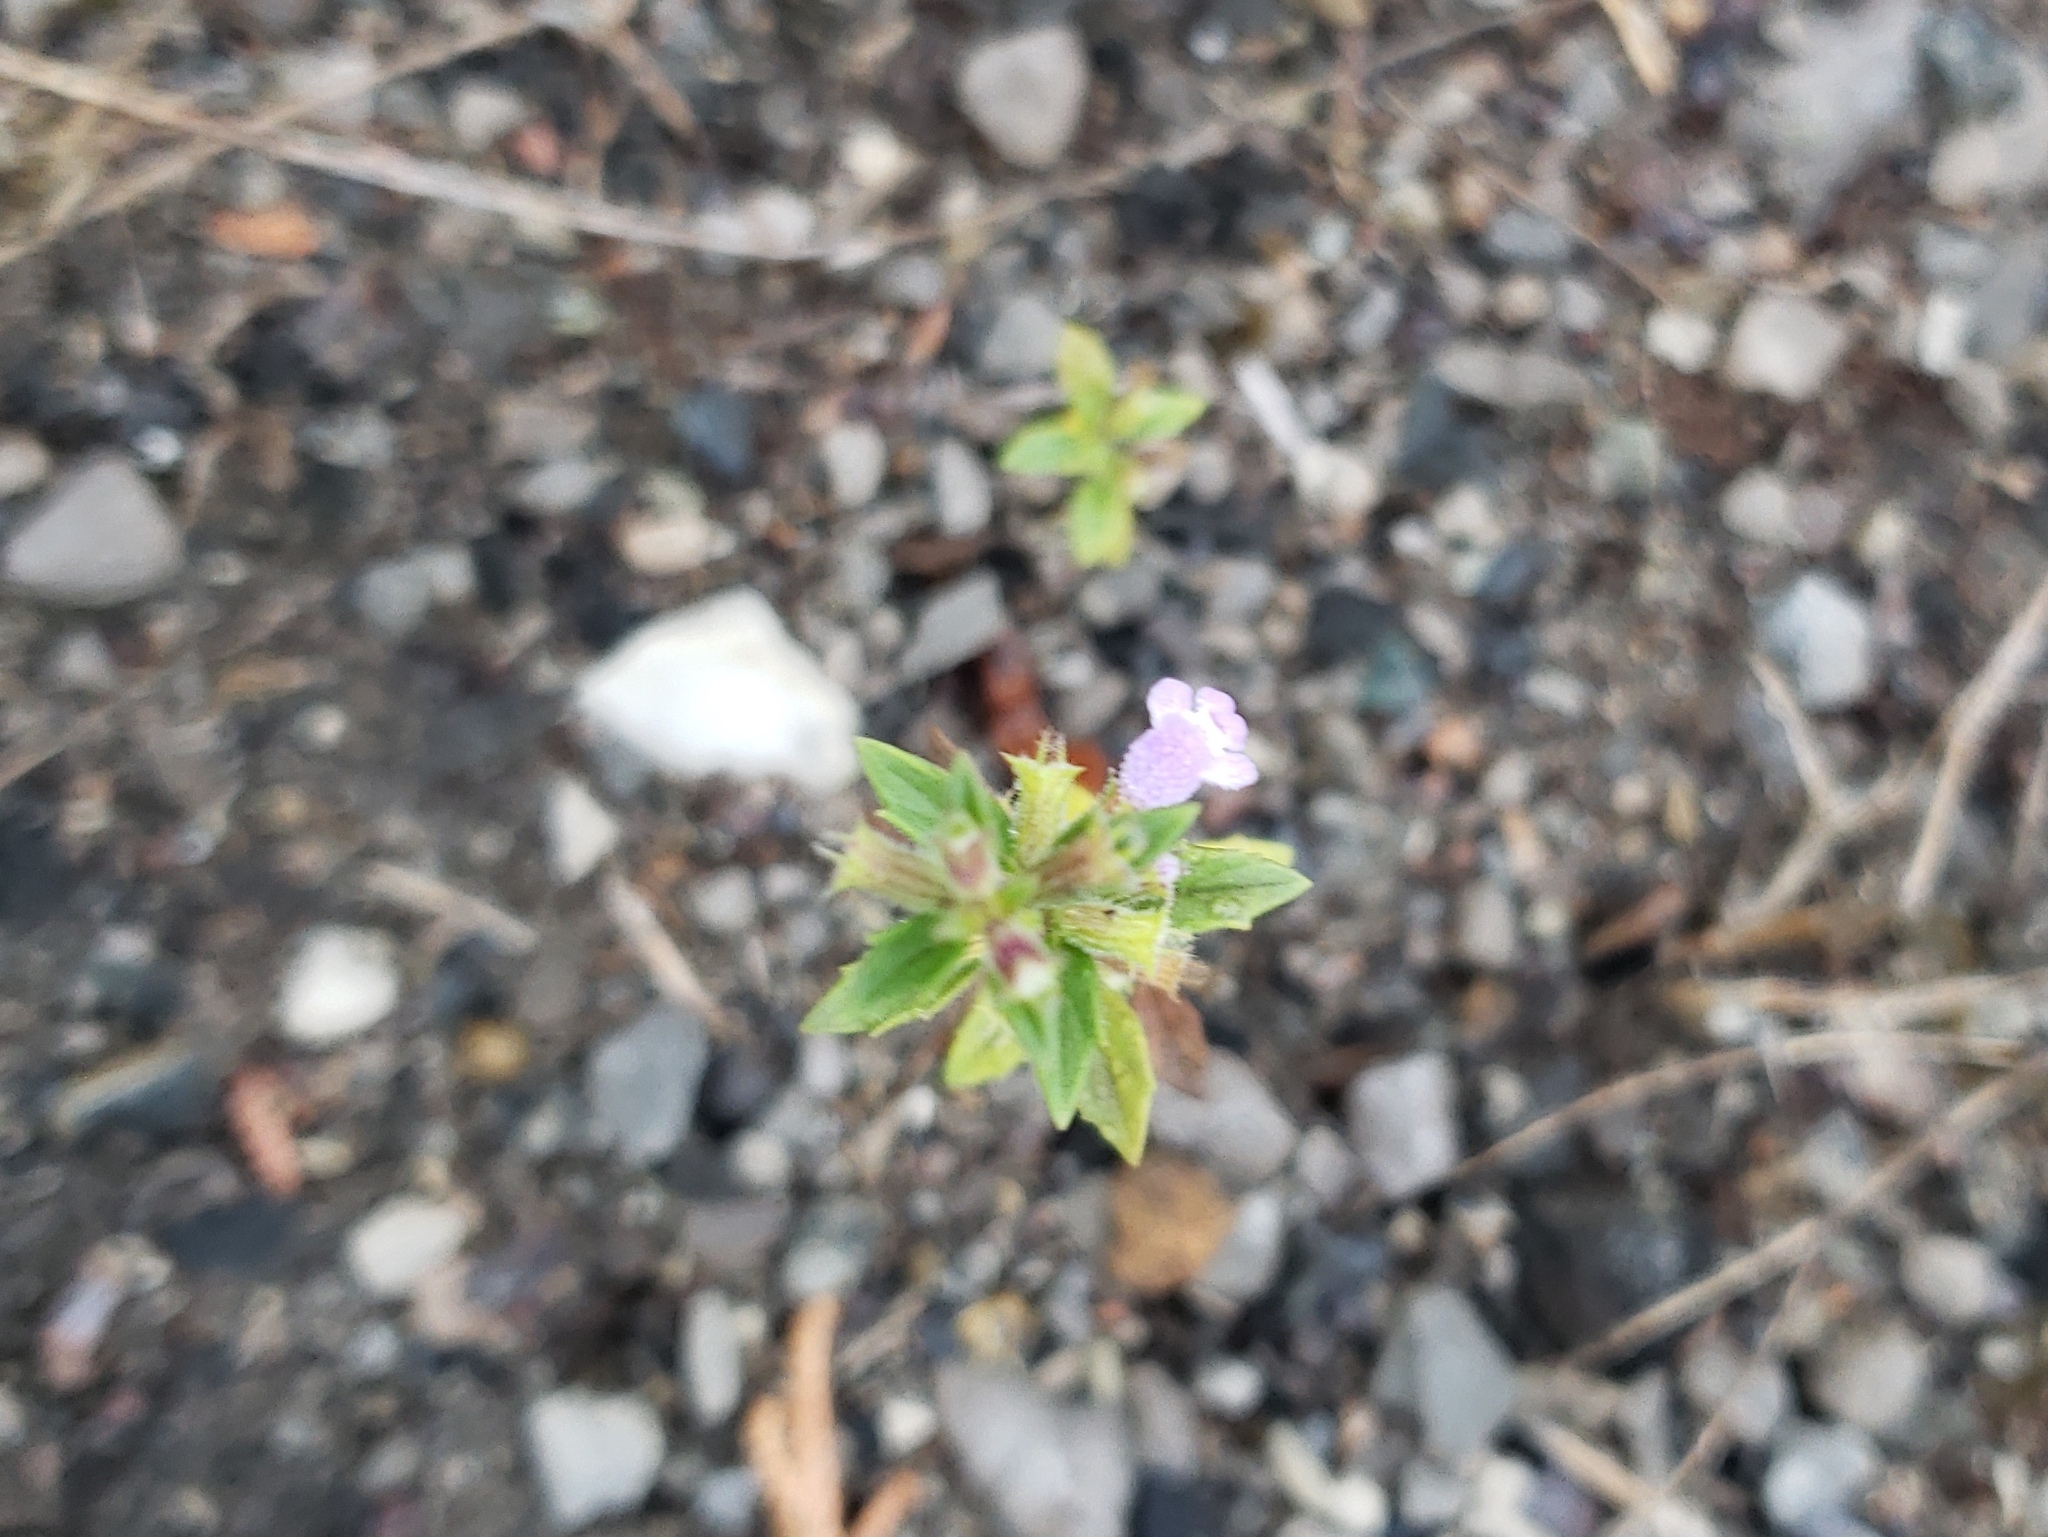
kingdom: Plantae
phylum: Tracheophyta
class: Magnoliopsida
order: Lamiales
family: Lamiaceae
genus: Clinopodium
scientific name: Clinopodium acinos
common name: Basil thyme
